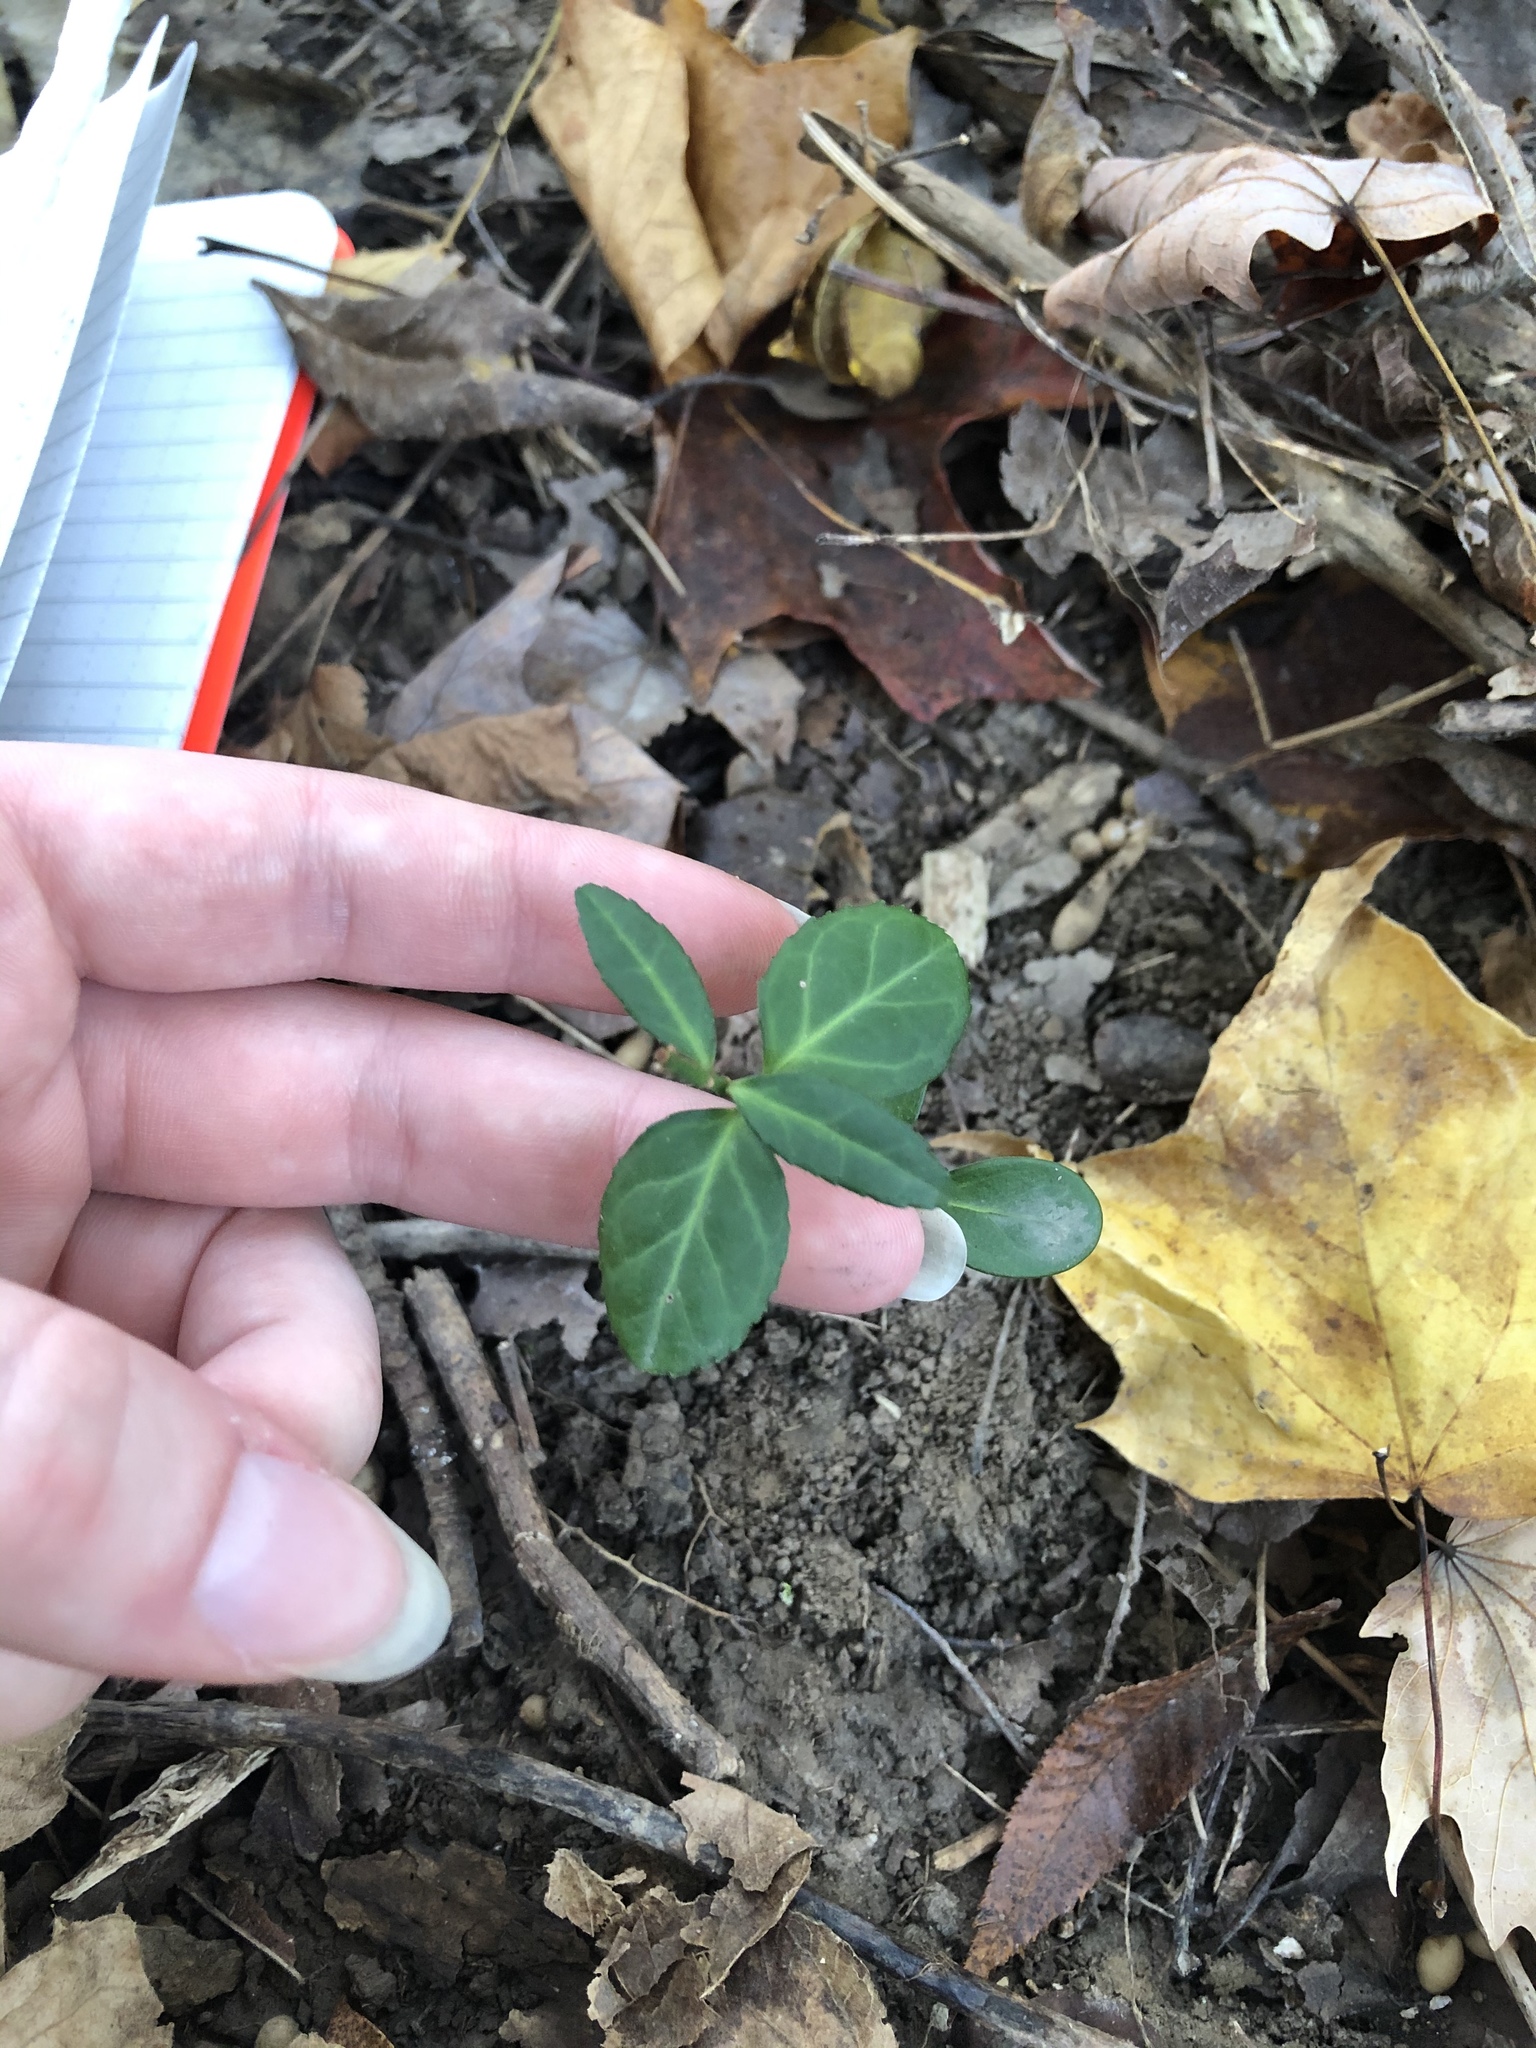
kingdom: Plantae
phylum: Tracheophyta
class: Magnoliopsida
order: Celastrales
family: Celastraceae
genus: Euonymus
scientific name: Euonymus fortunei
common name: Climbing euonymus
